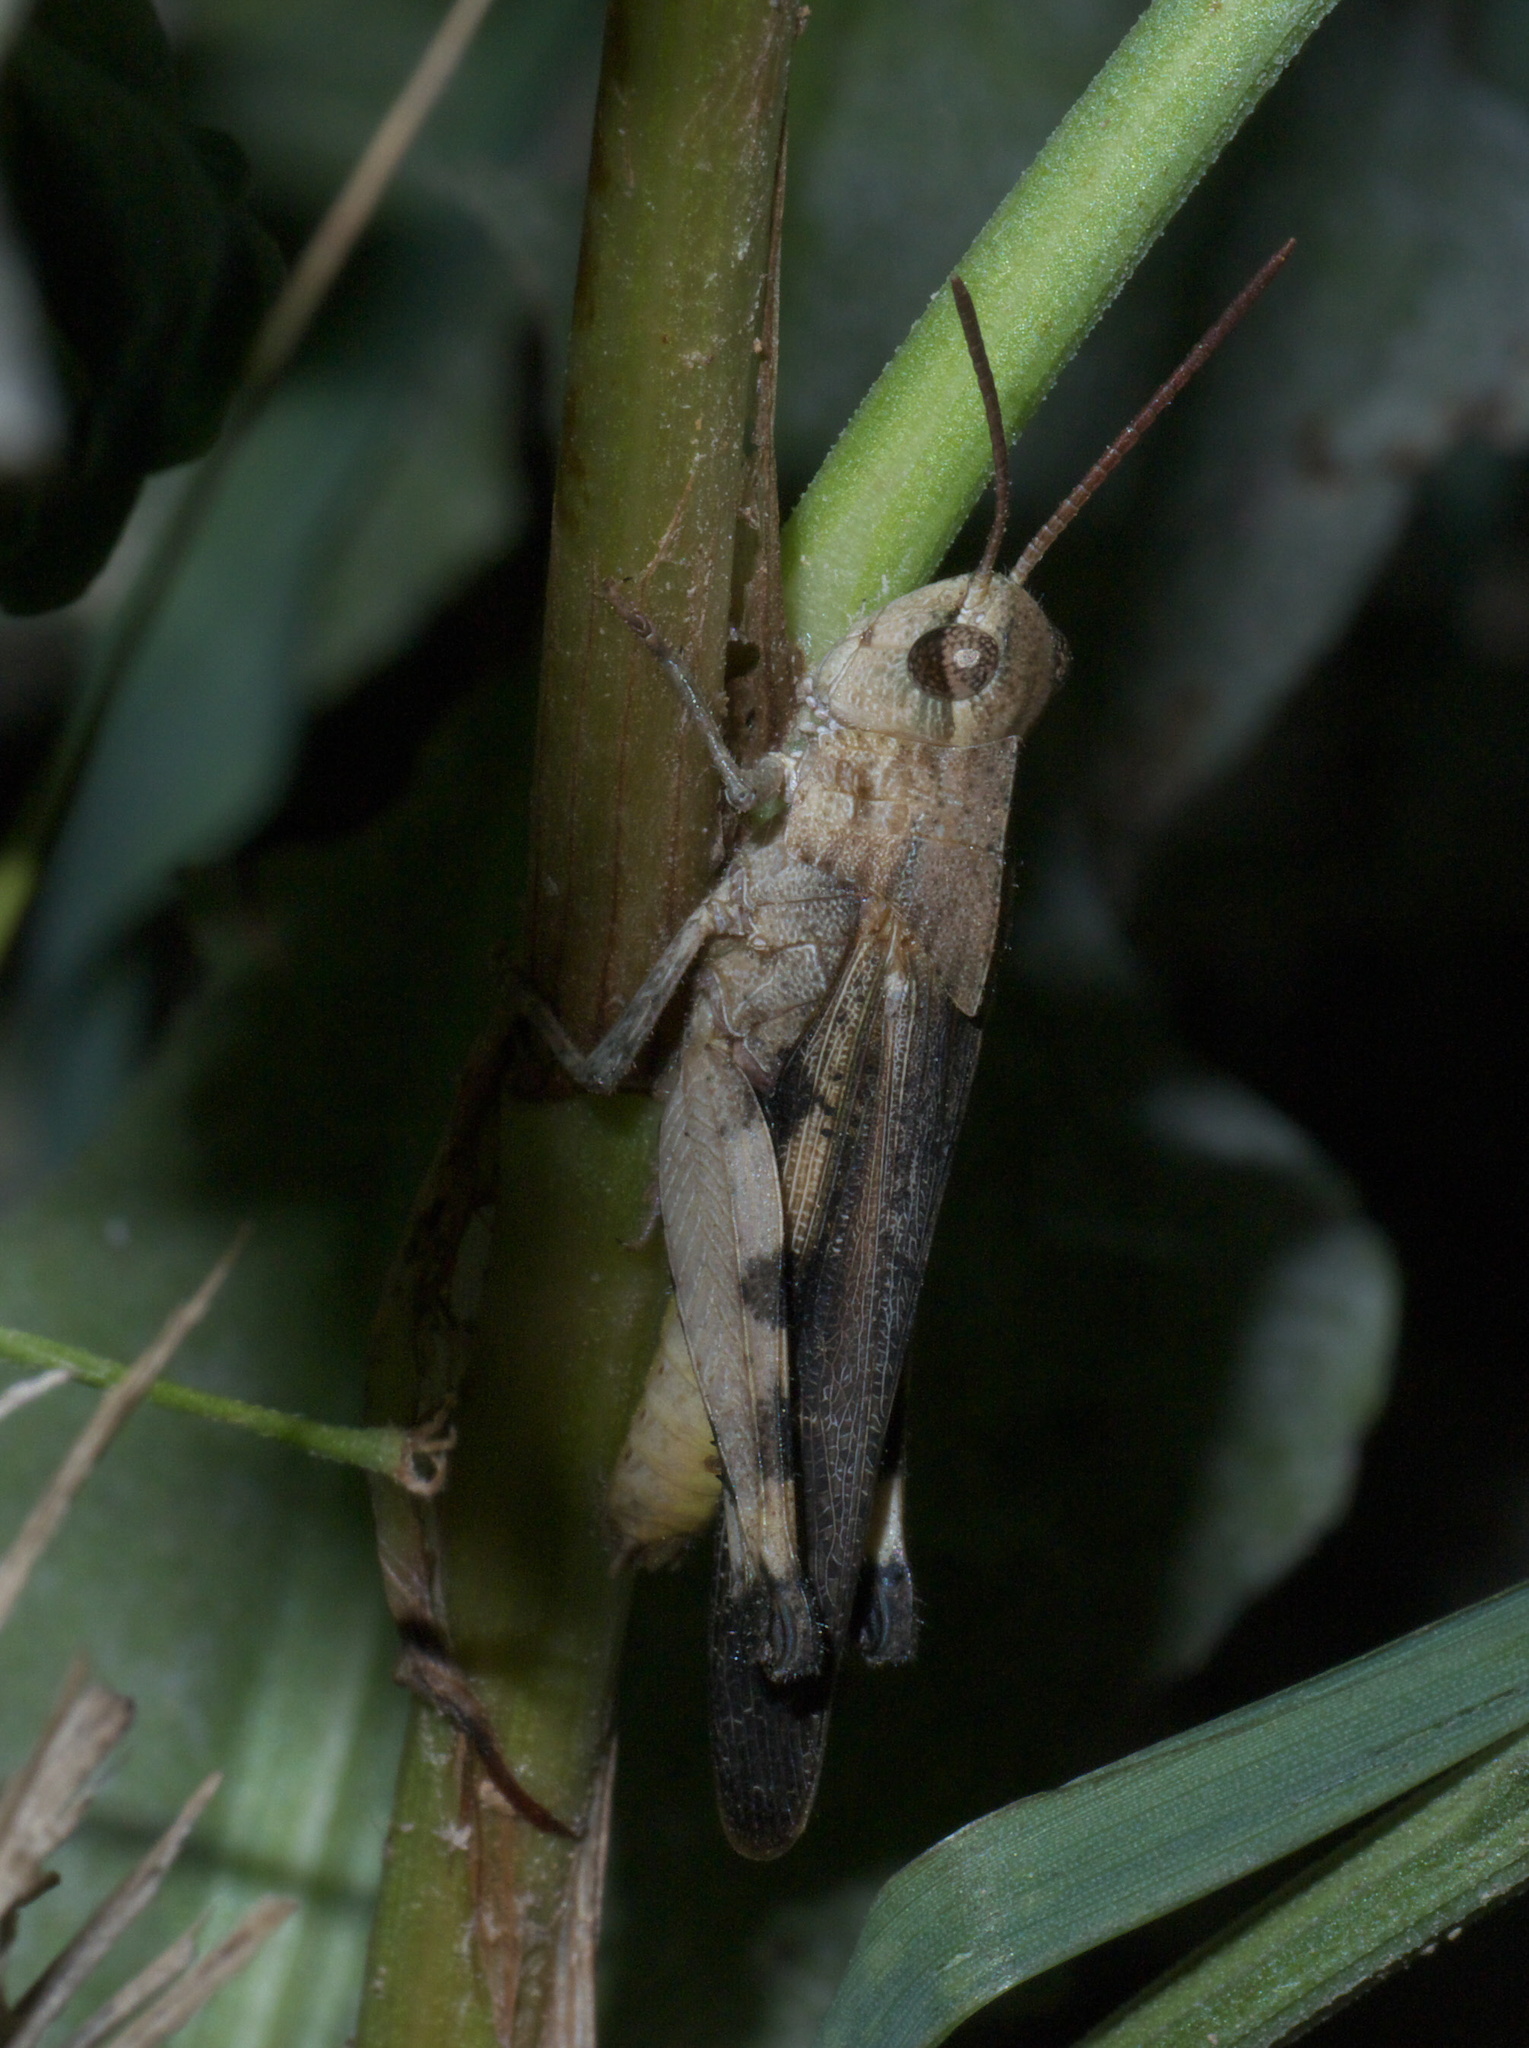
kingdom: Animalia
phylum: Arthropoda
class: Insecta
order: Orthoptera
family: Acrididae
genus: Chortophaga
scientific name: Chortophaga viridifasciata
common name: Green-striped grasshopper
